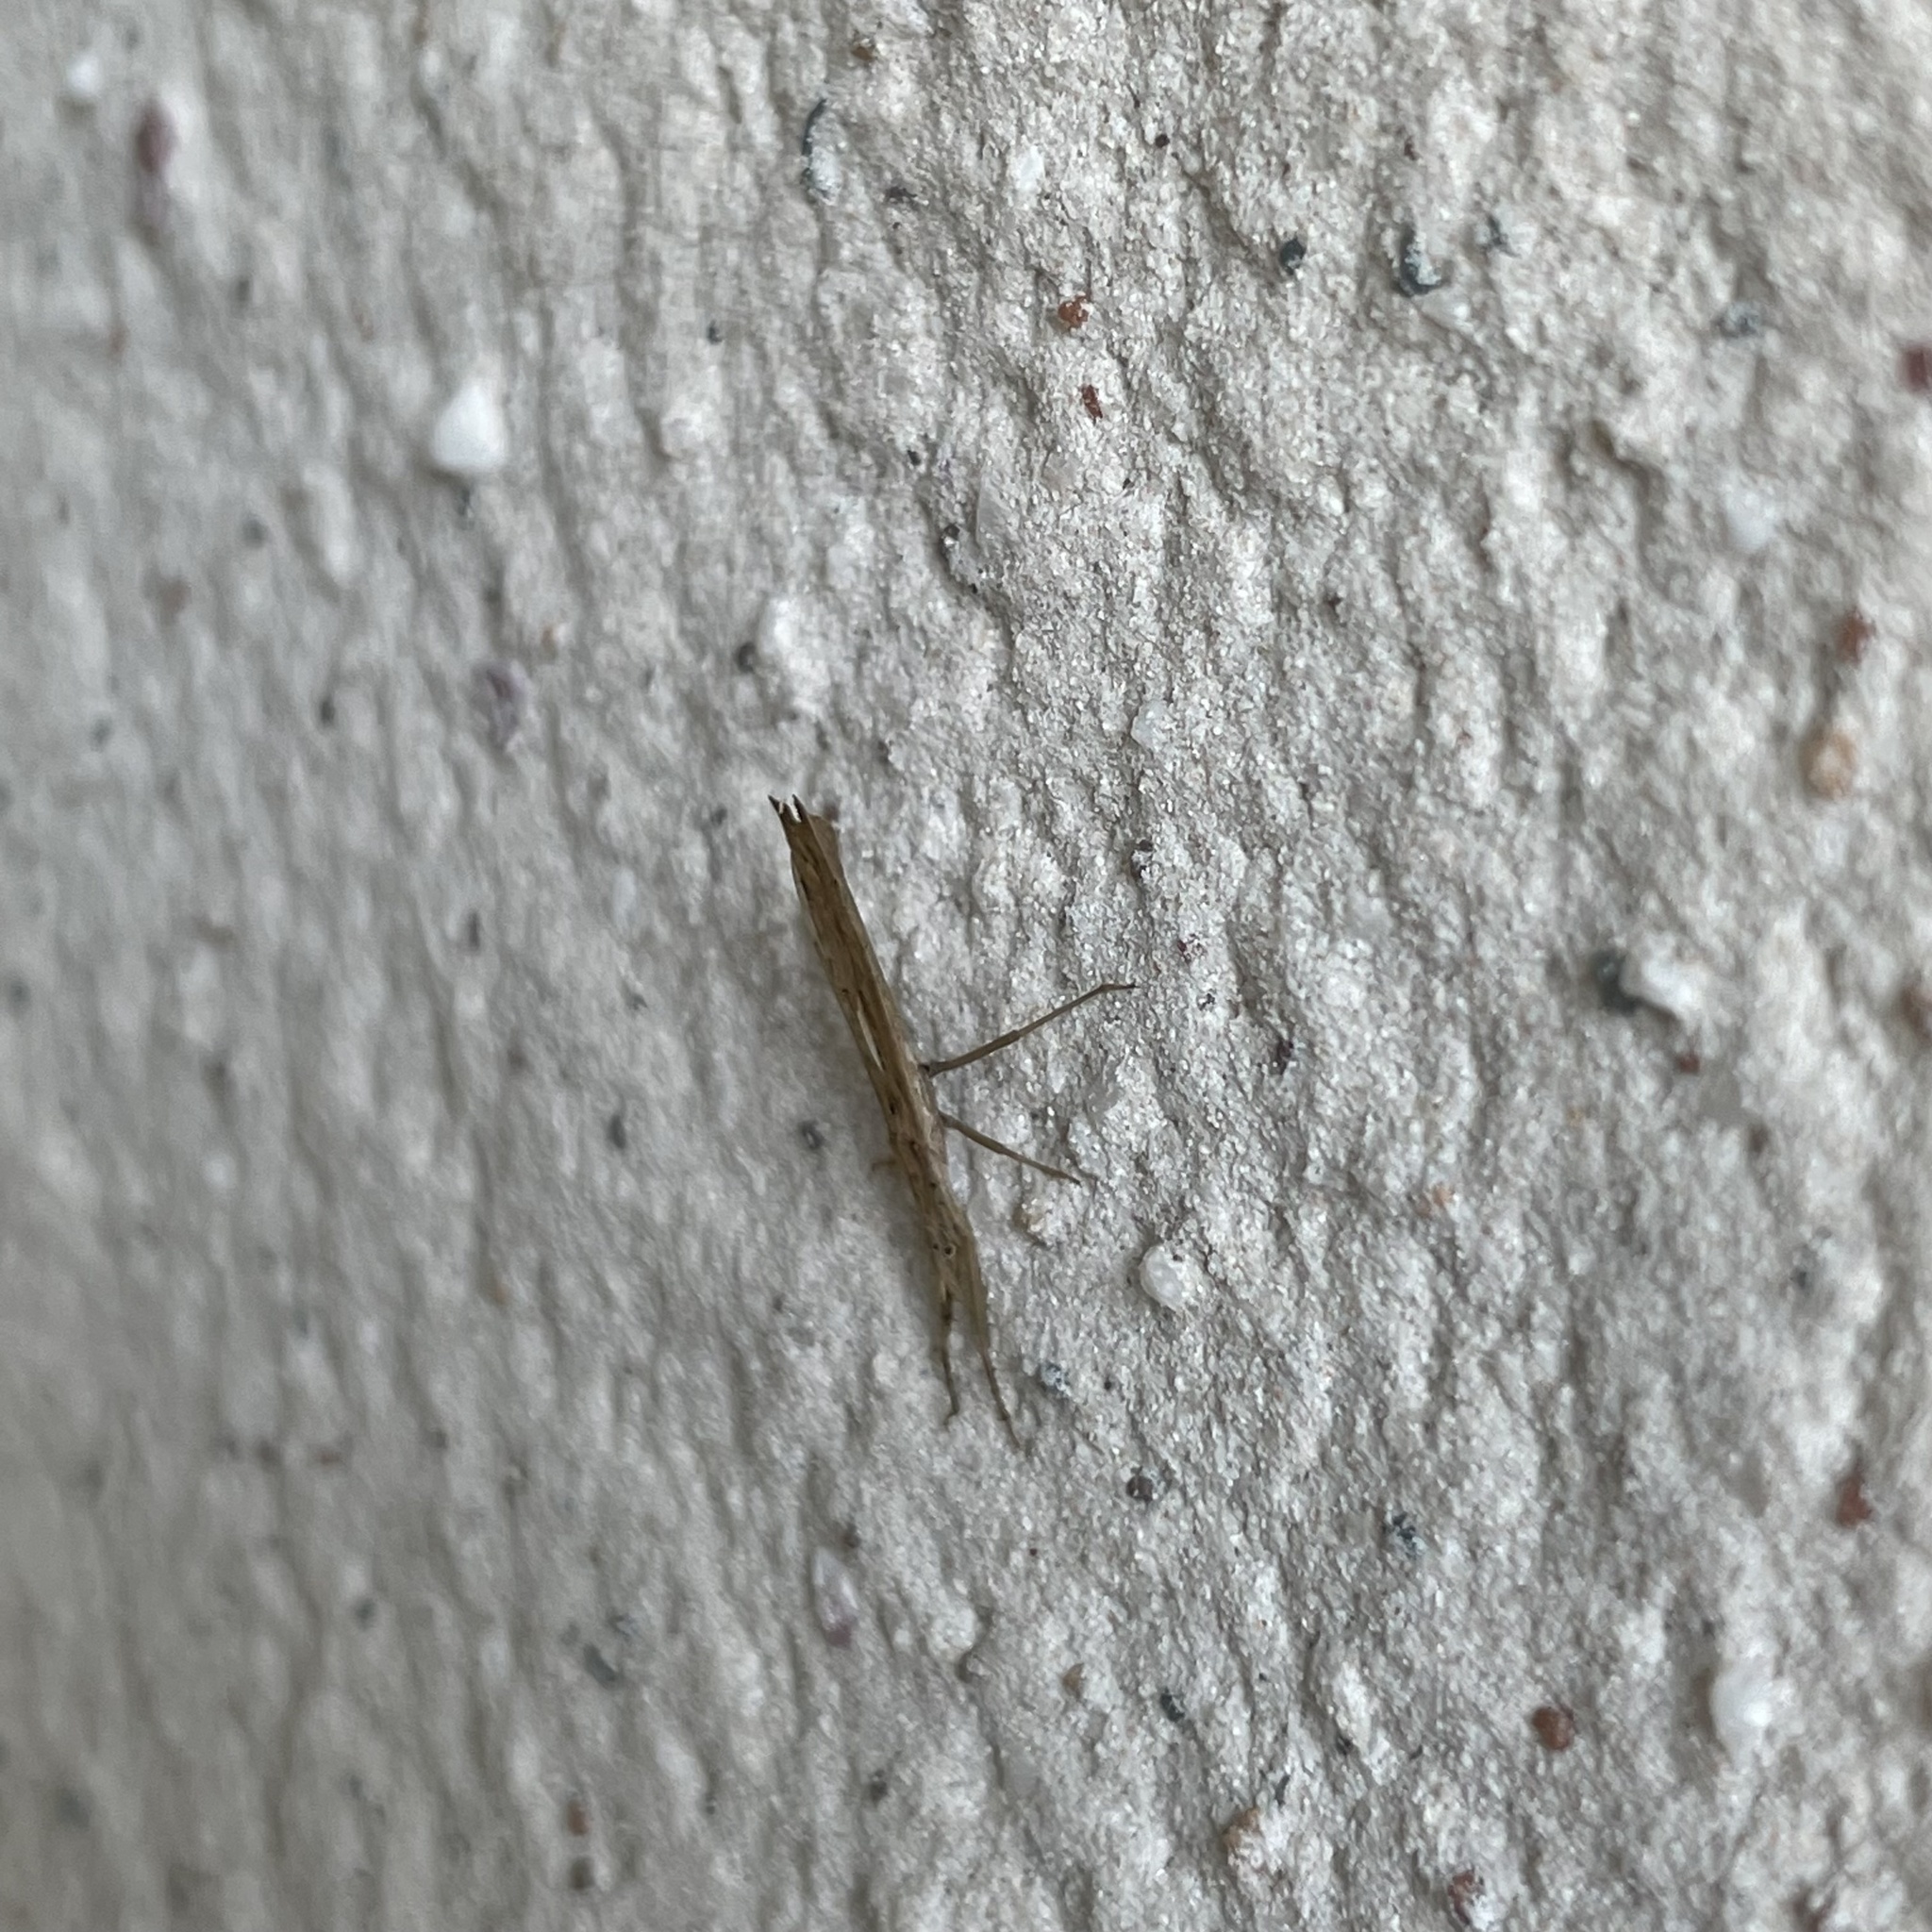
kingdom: Animalia
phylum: Arthropoda
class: Insecta
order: Hemiptera
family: Reduviidae
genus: Stachyotropha
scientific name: Stachyotropha punctifera
